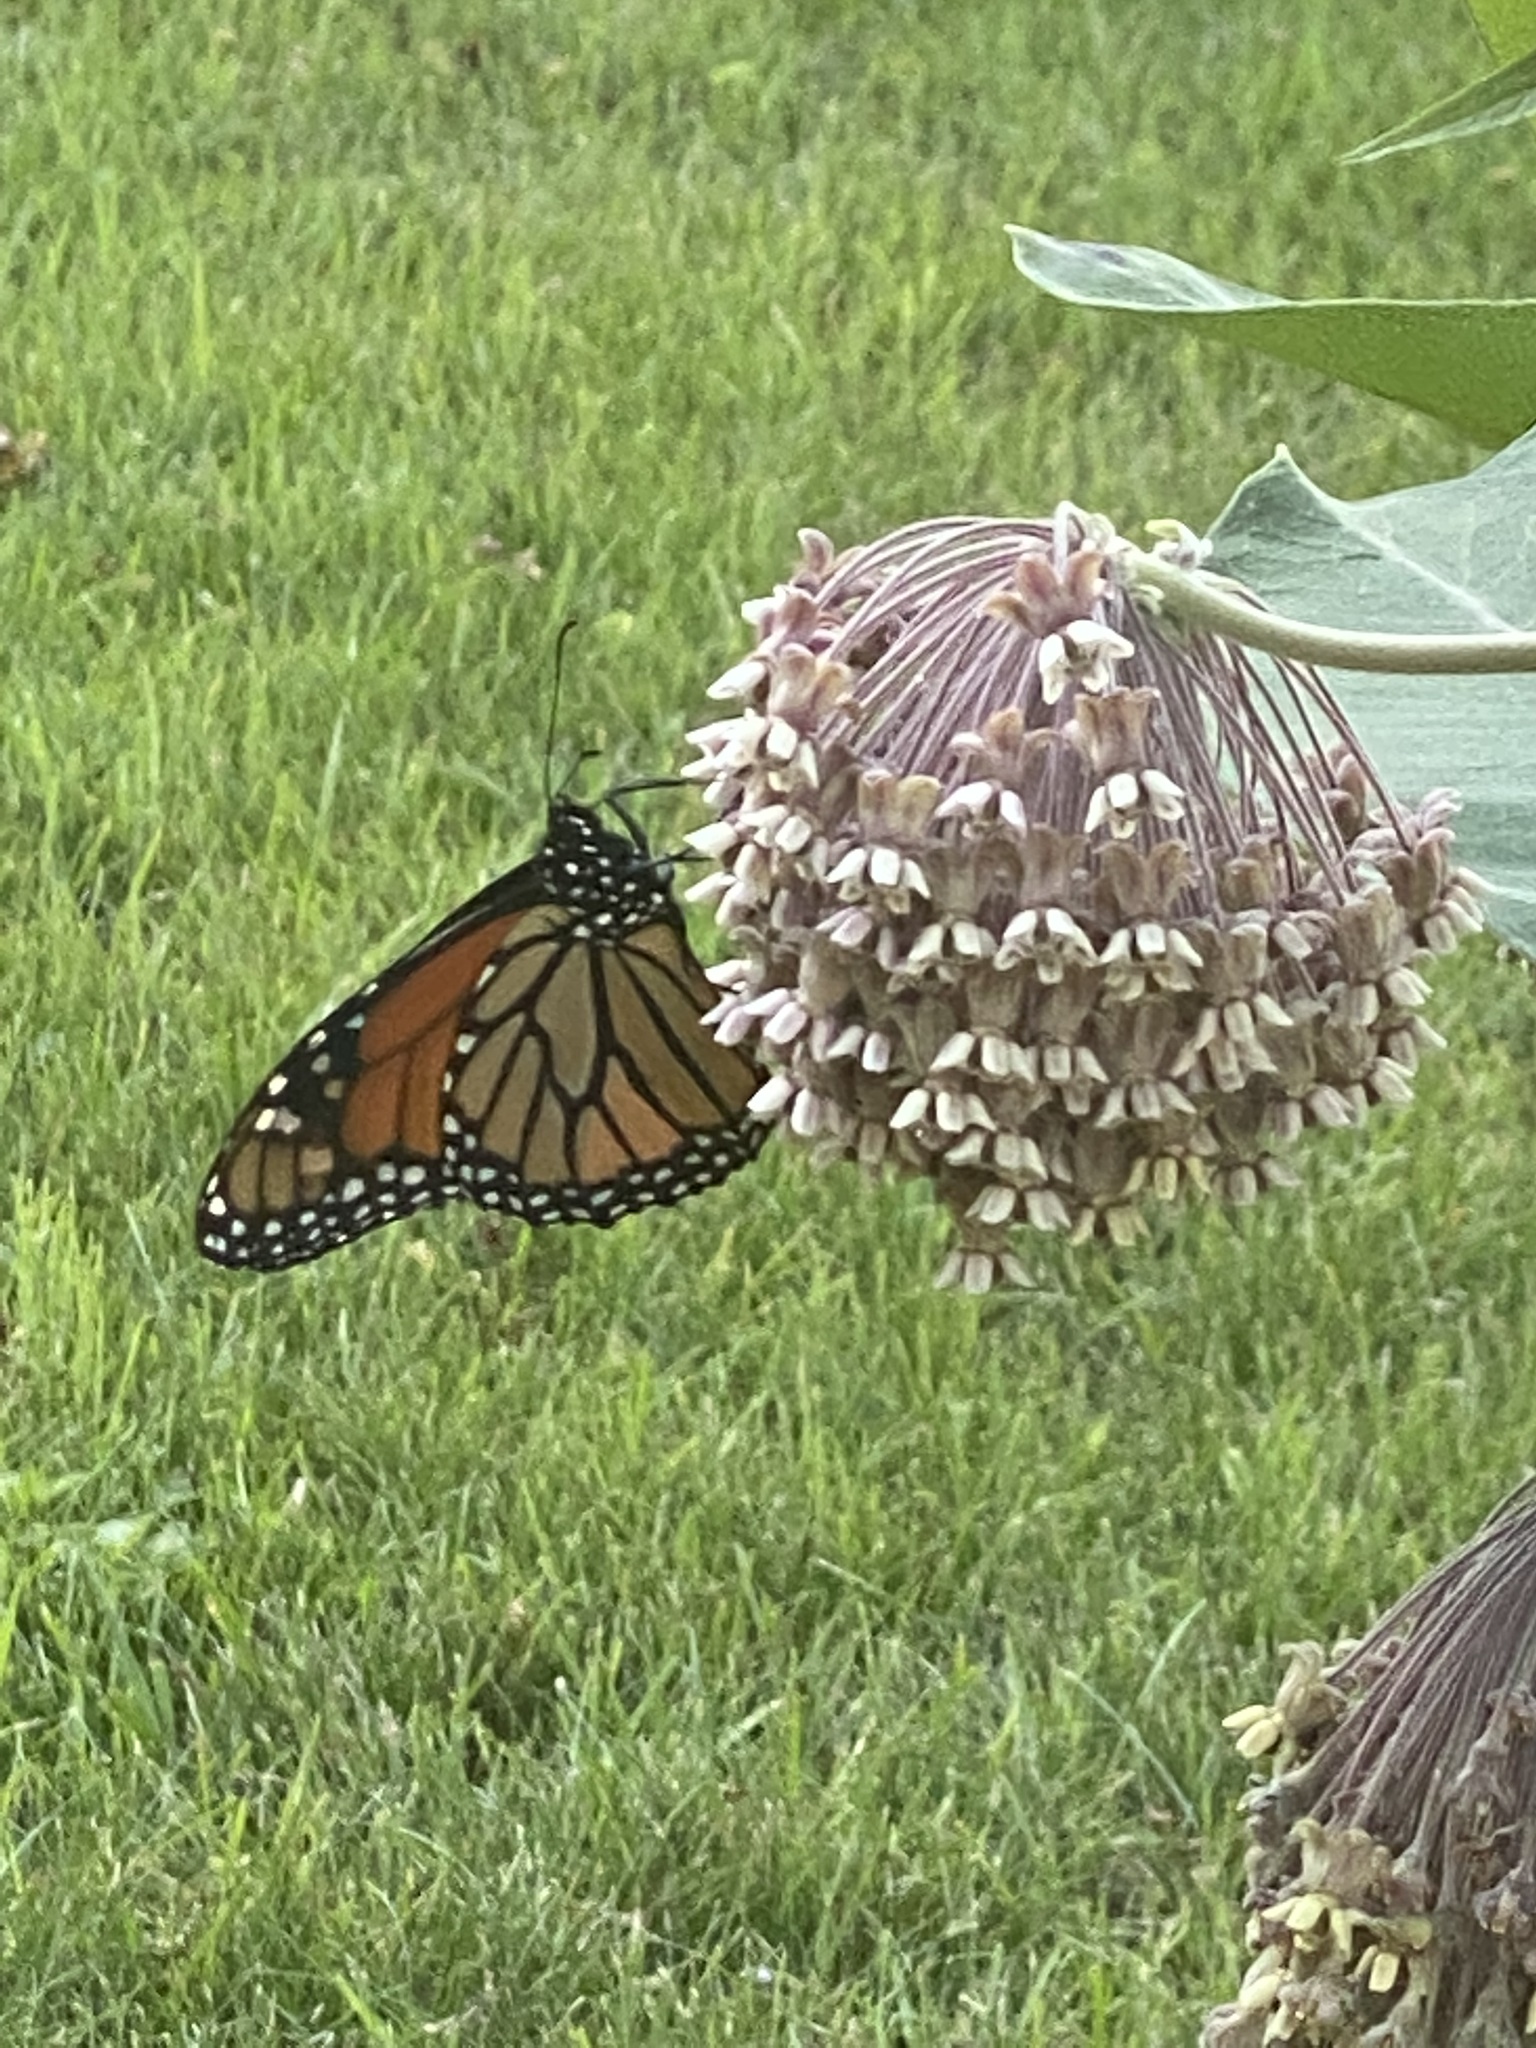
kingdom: Animalia
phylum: Arthropoda
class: Insecta
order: Lepidoptera
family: Nymphalidae
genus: Danaus
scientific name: Danaus plexippus
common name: Monarch
